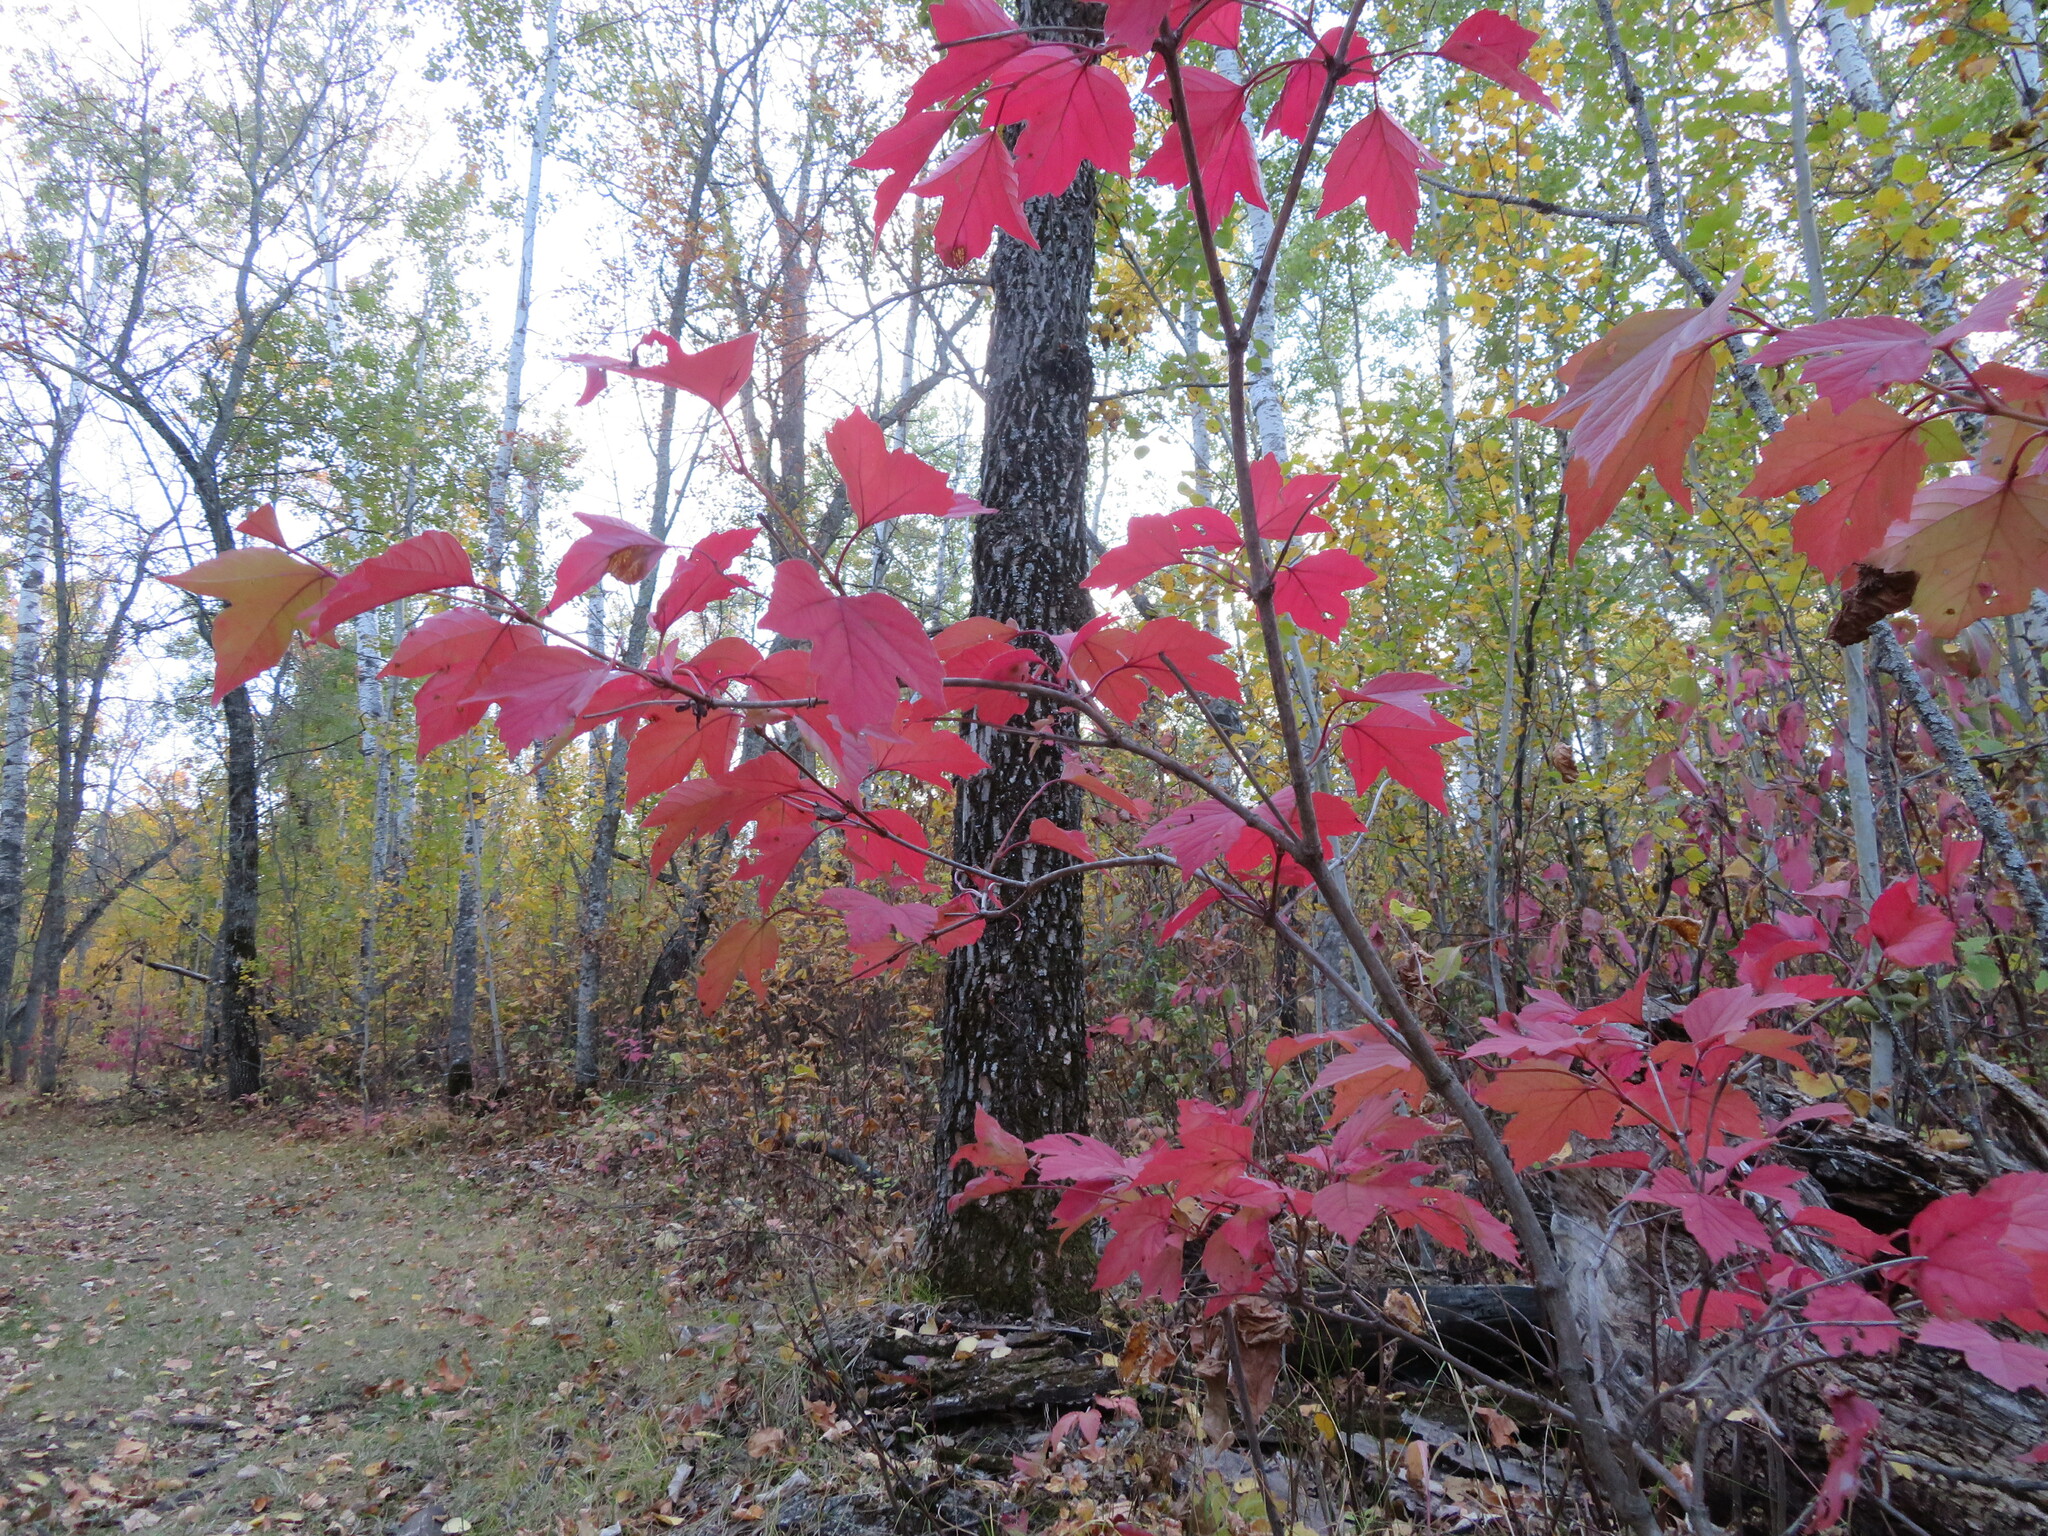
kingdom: Plantae
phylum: Tracheophyta
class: Magnoliopsida
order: Dipsacales
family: Viburnaceae
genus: Viburnum
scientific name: Viburnum opulus
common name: Guelder-rose
